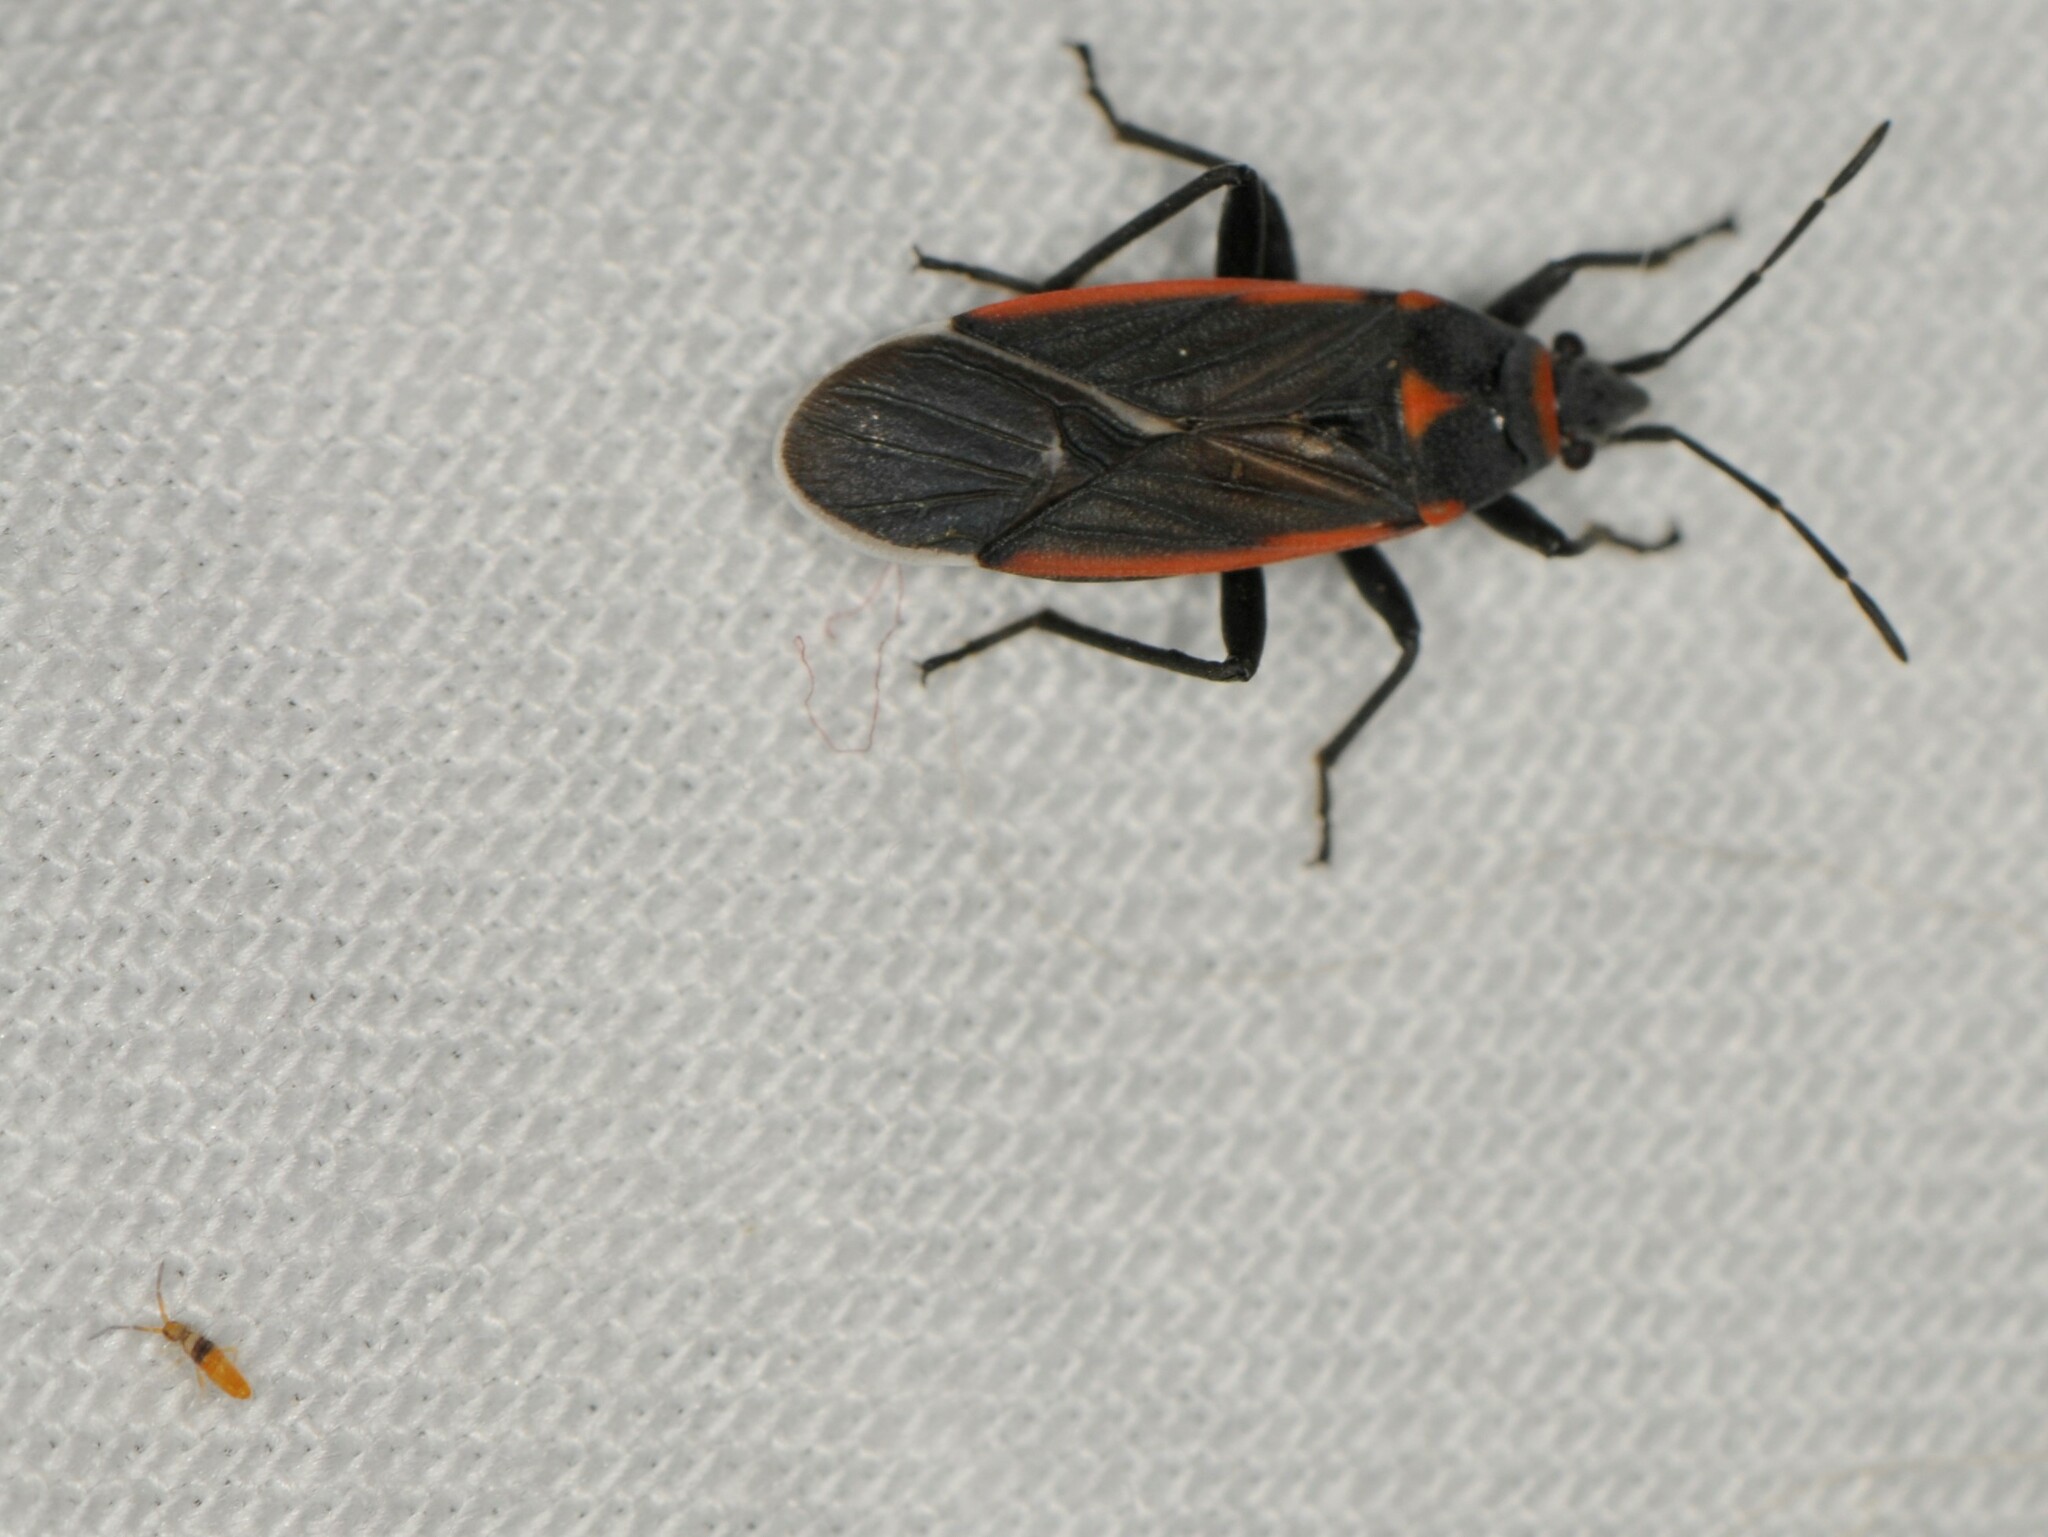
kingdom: Animalia
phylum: Arthropoda
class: Insecta
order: Hemiptera
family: Lygaeidae
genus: Melacoryphus
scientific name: Melacoryphus lateralis
